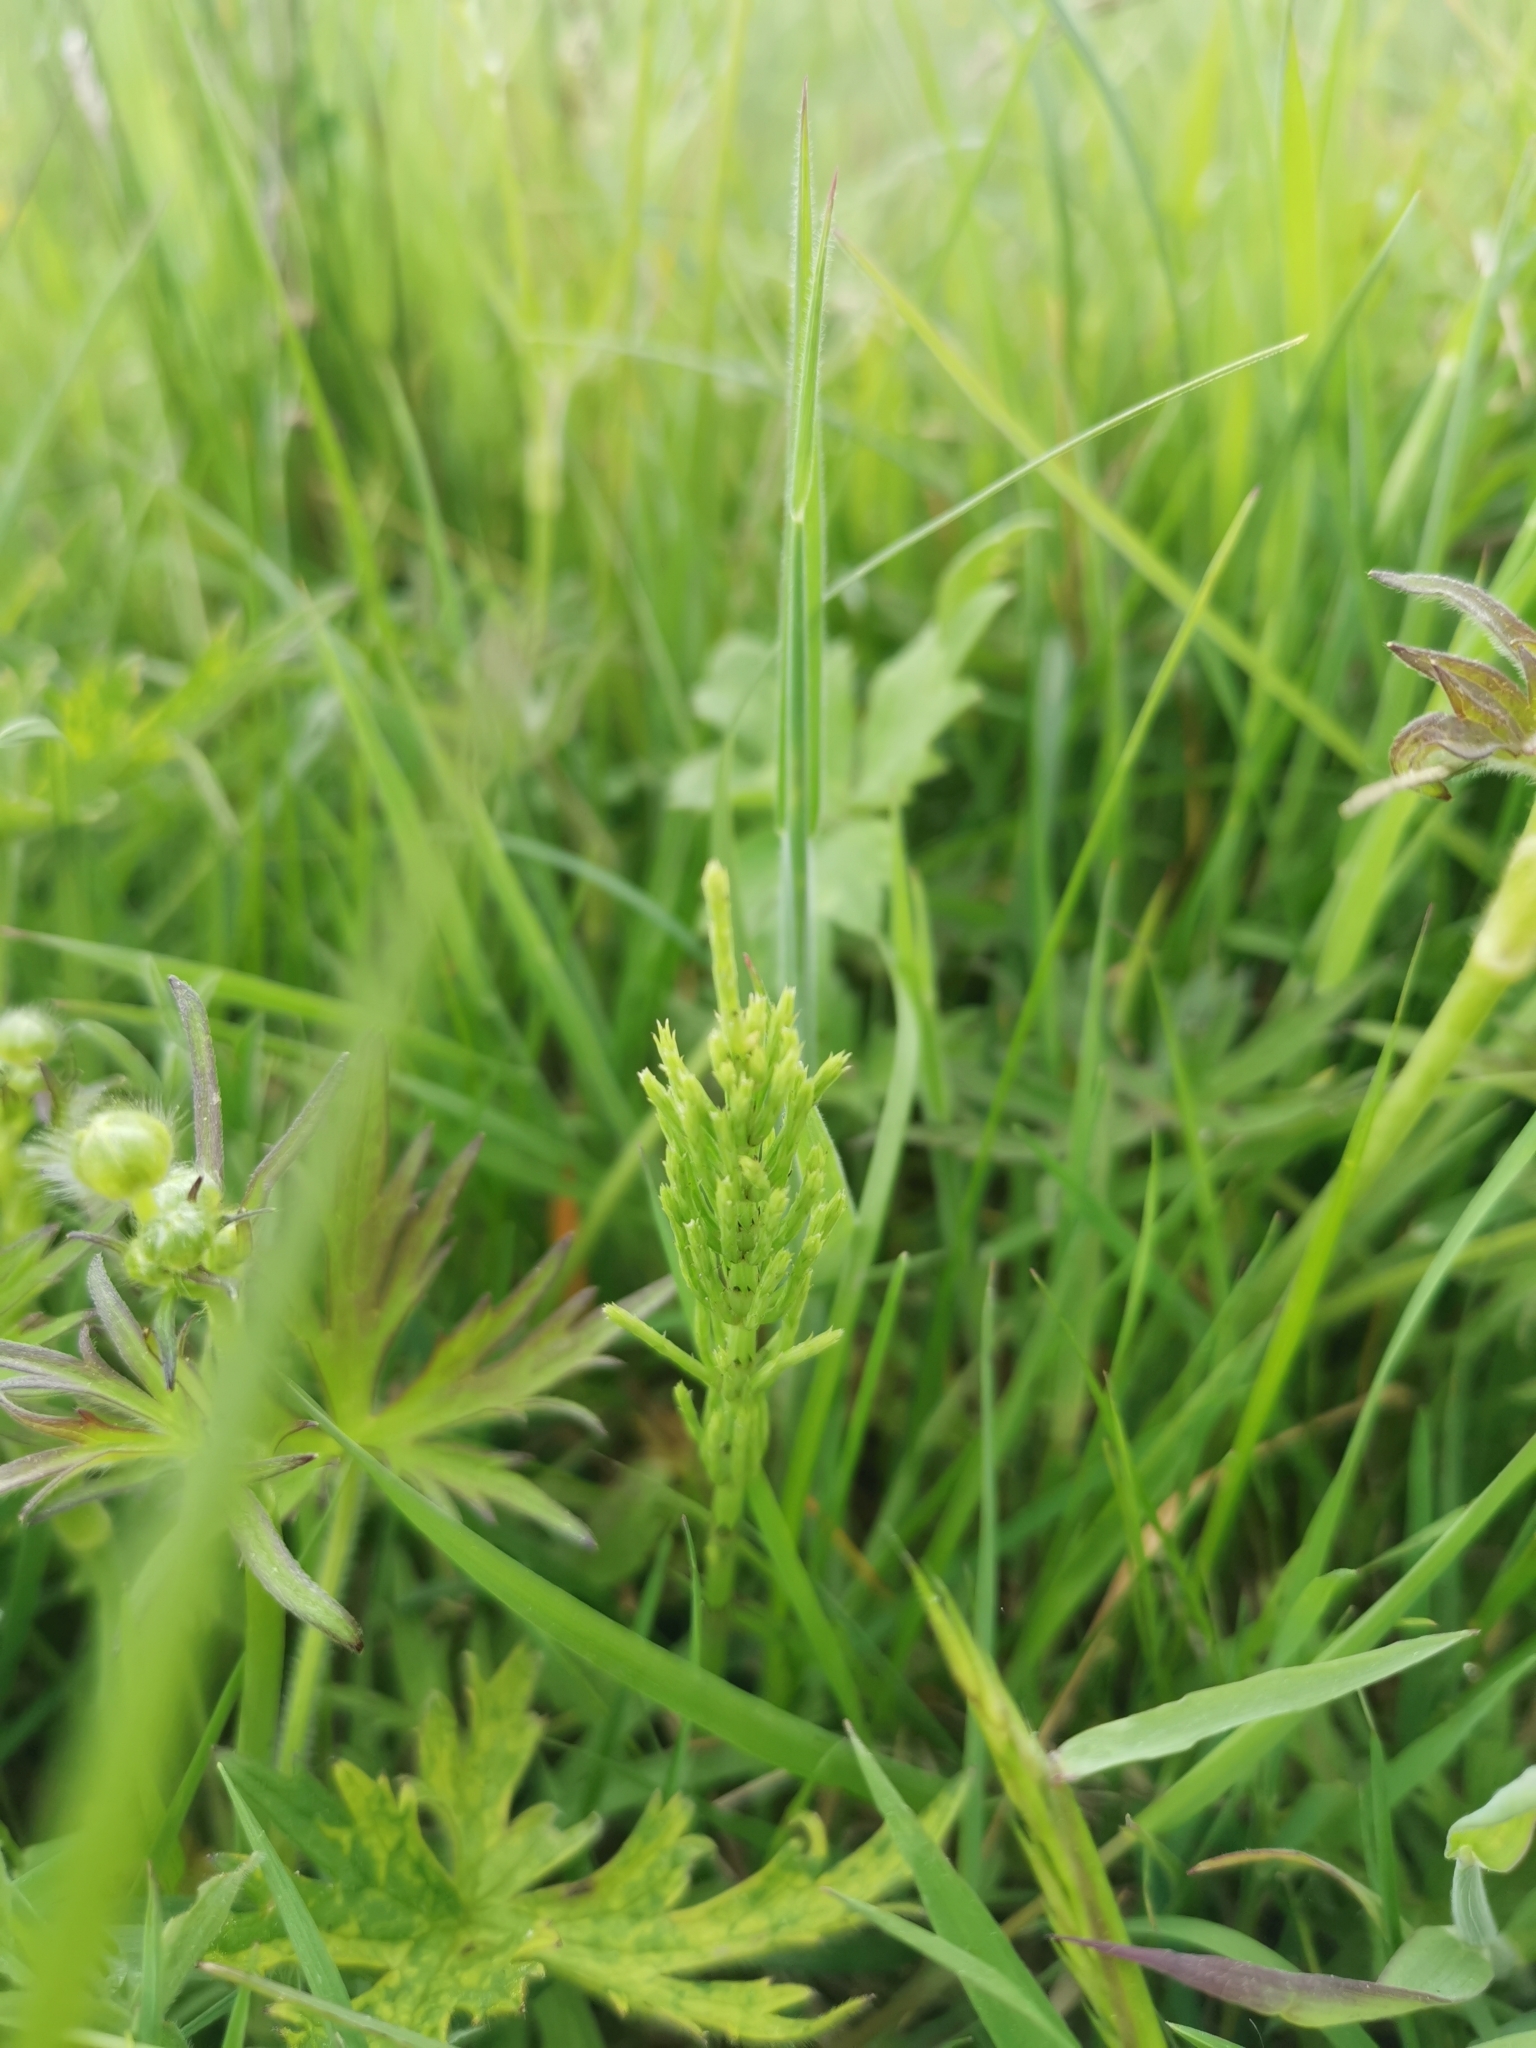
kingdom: Plantae
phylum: Tracheophyta
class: Polypodiopsida
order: Equisetales
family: Equisetaceae
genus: Equisetum
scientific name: Equisetum arvense
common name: Field horsetail
